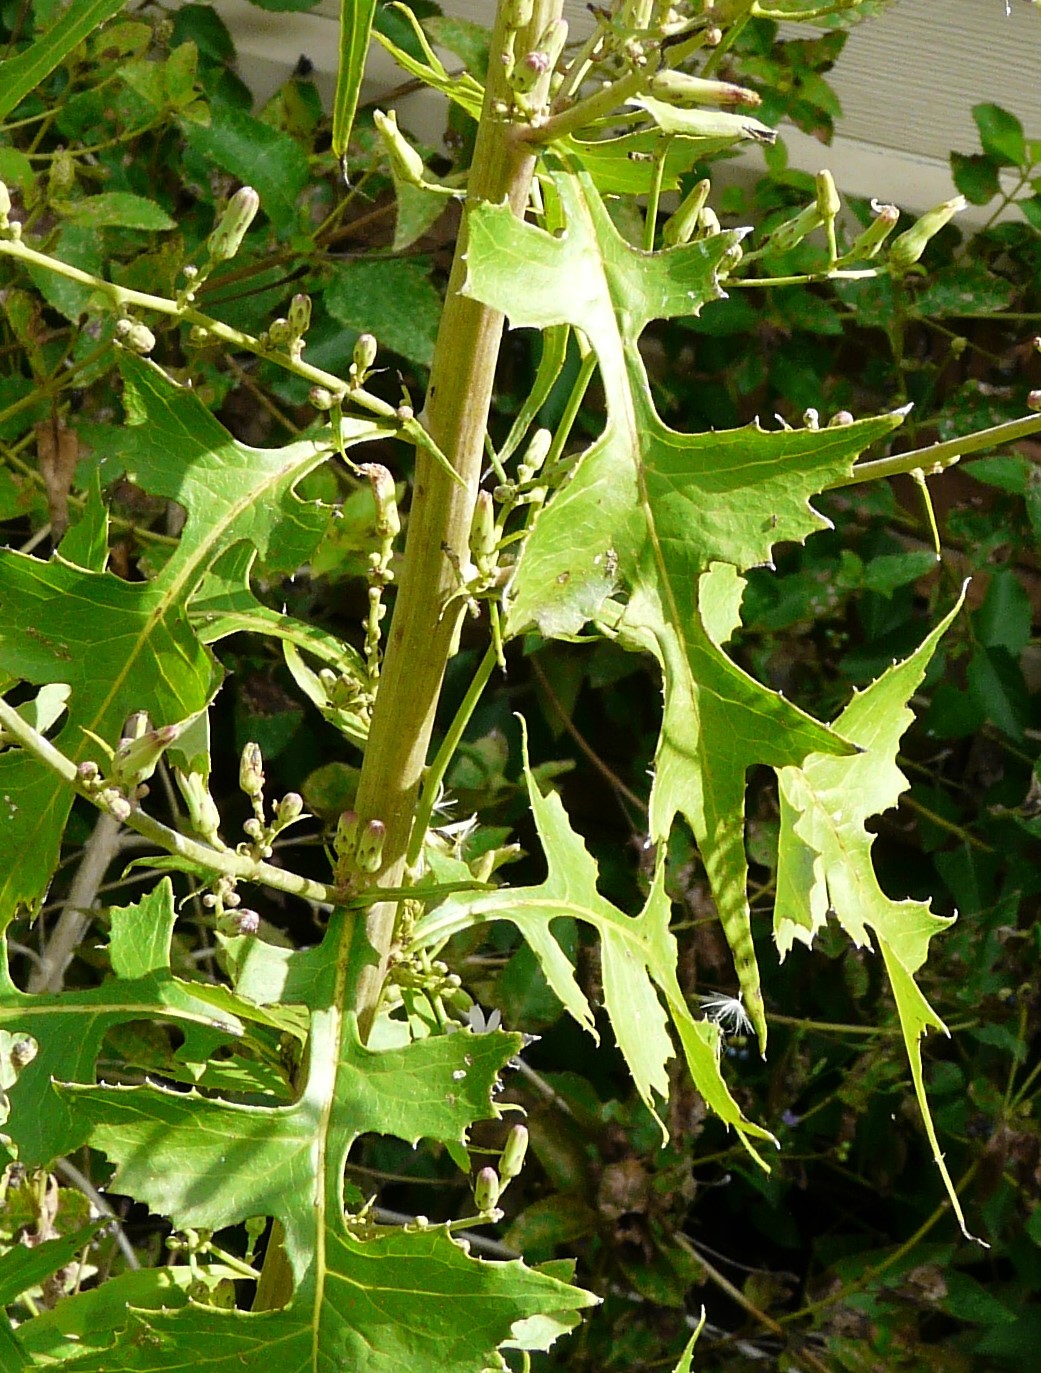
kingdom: Plantae
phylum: Tracheophyta
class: Magnoliopsida
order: Asterales
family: Asteraceae
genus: Lactuca
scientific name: Lactuca floridana
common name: Woodland lettuce
